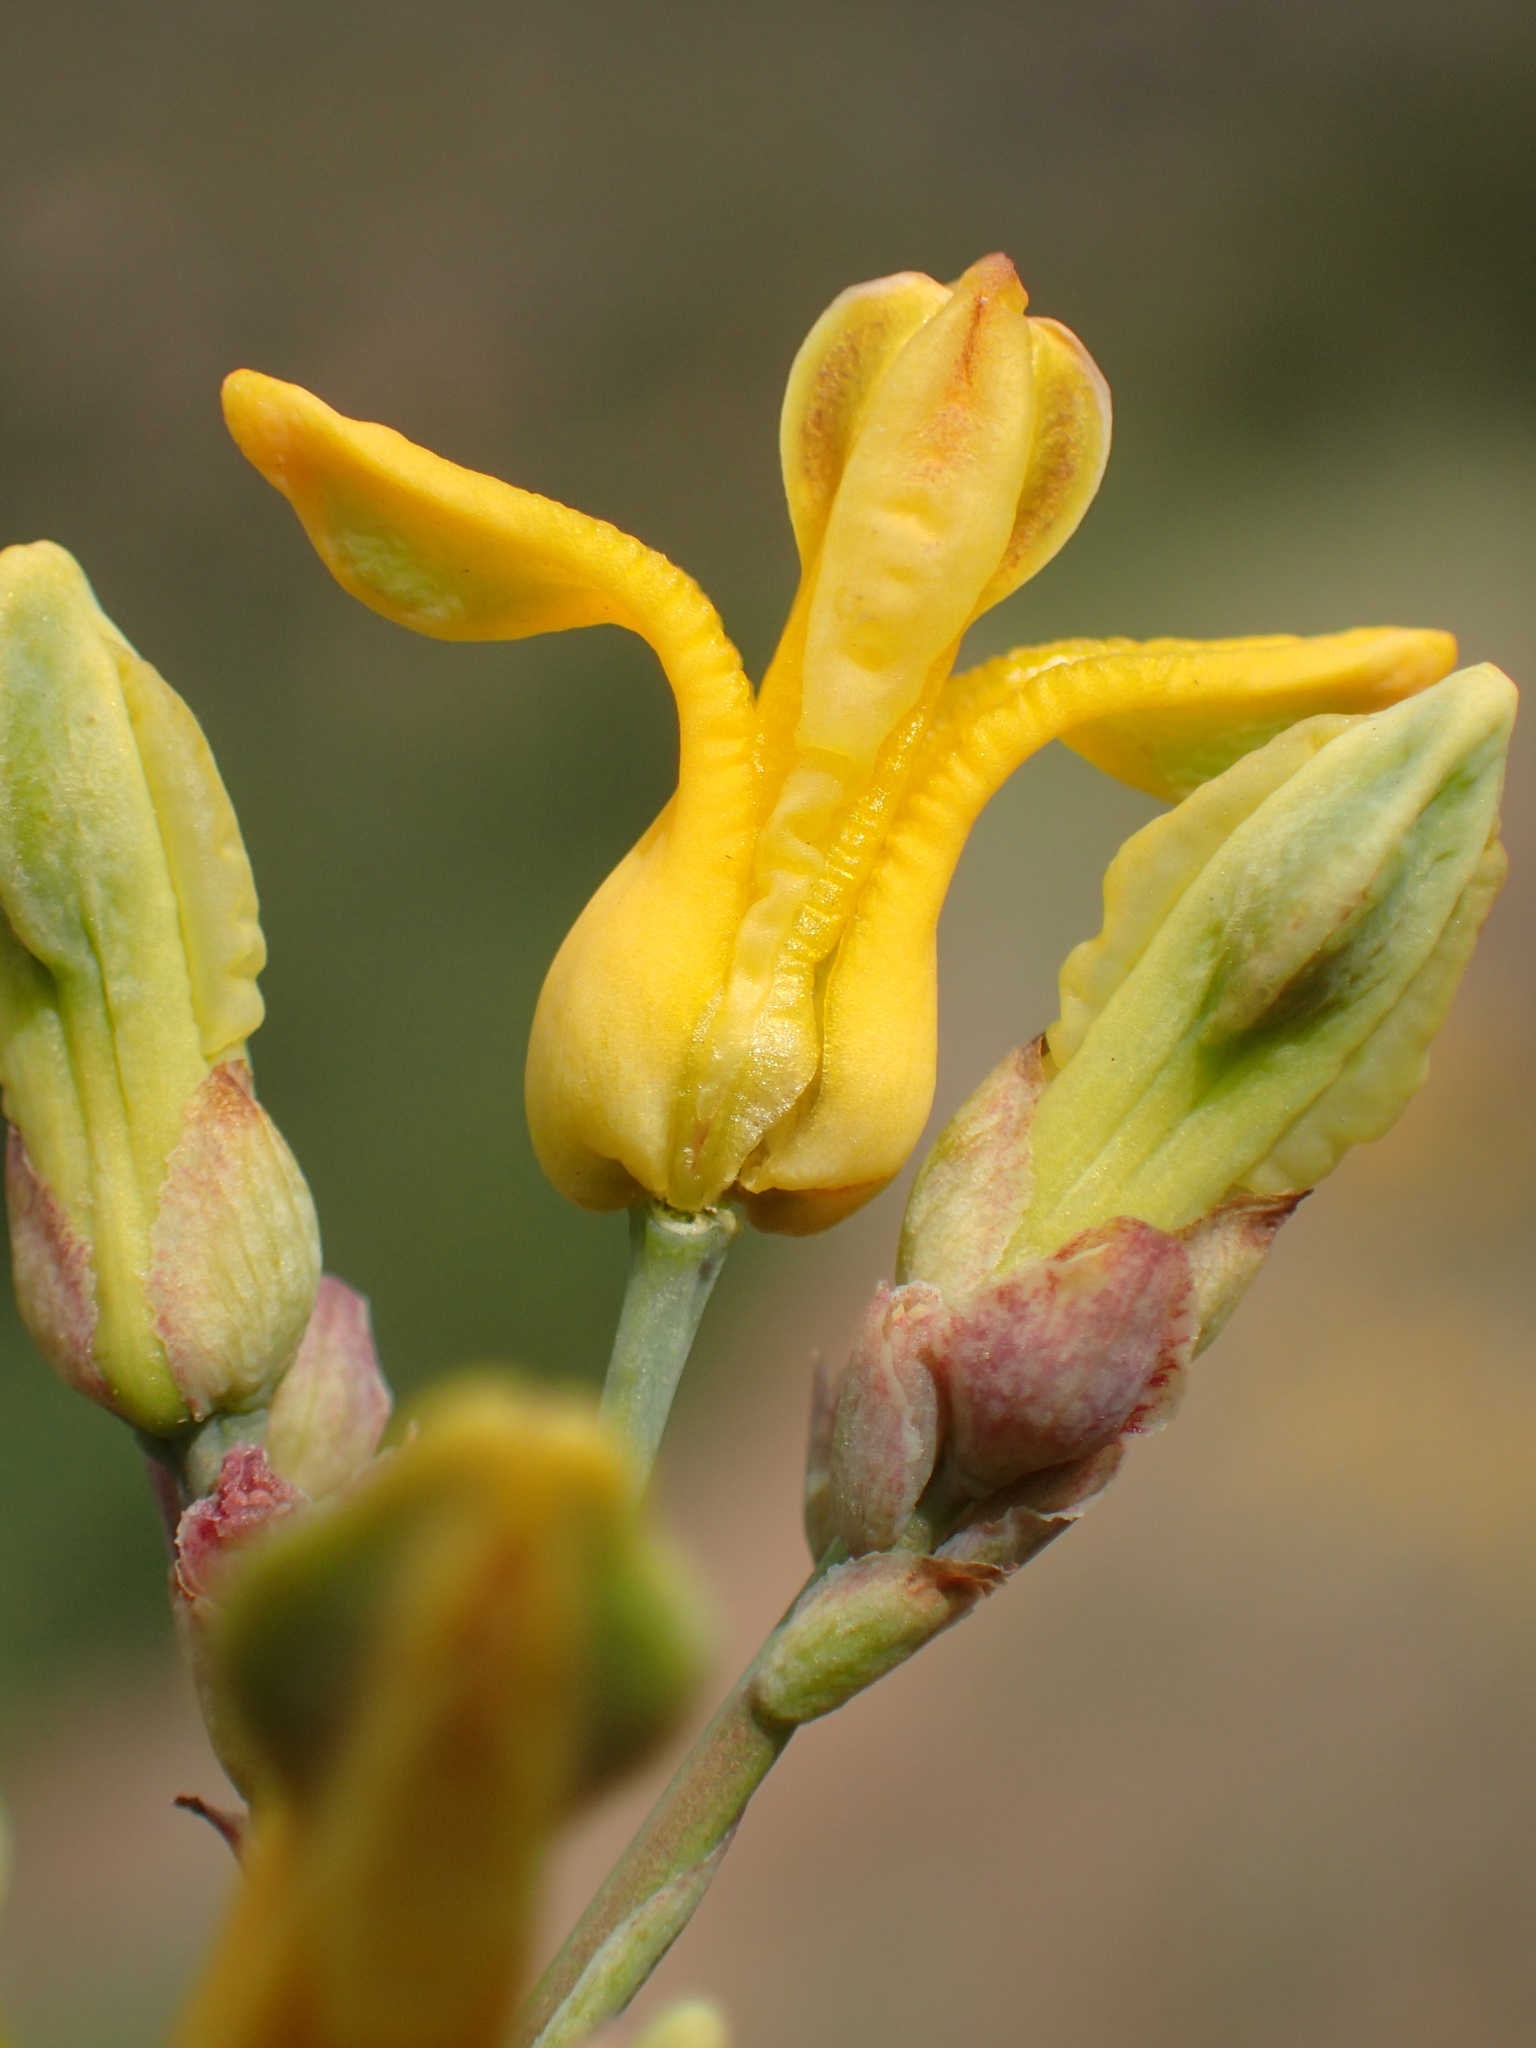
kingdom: Plantae
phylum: Tracheophyta
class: Magnoliopsida
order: Ranunculales
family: Papaveraceae
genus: Ehrendorferia
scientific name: Ehrendorferia chrysantha
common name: Golden eardrops
